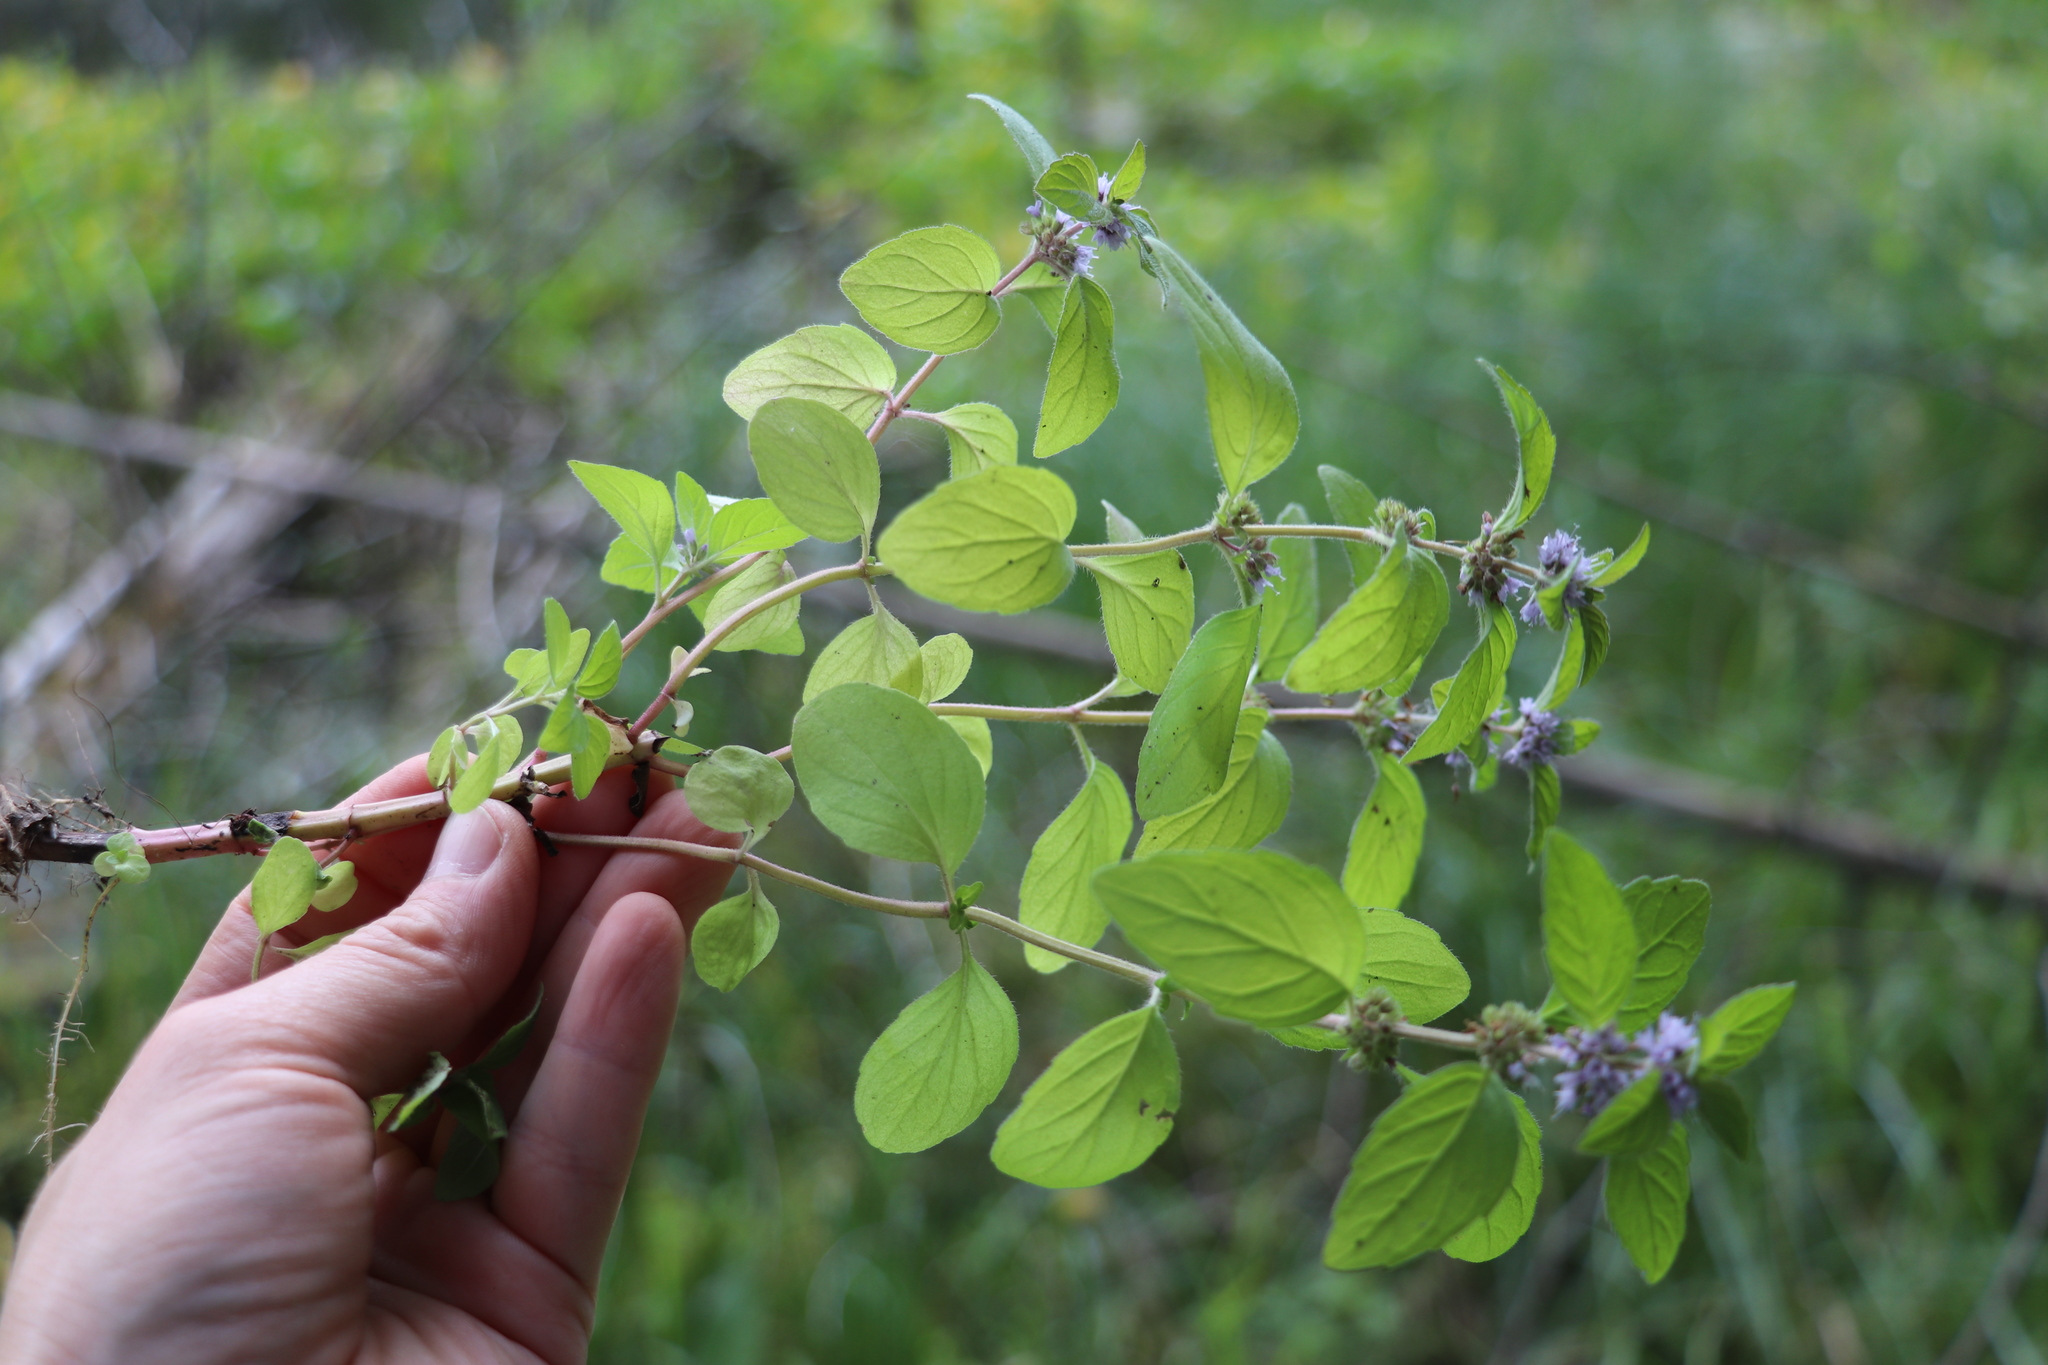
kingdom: Plantae
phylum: Tracheophyta
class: Magnoliopsida
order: Lamiales
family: Lamiaceae
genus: Mentha
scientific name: Mentha arvensis
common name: Corn mint
